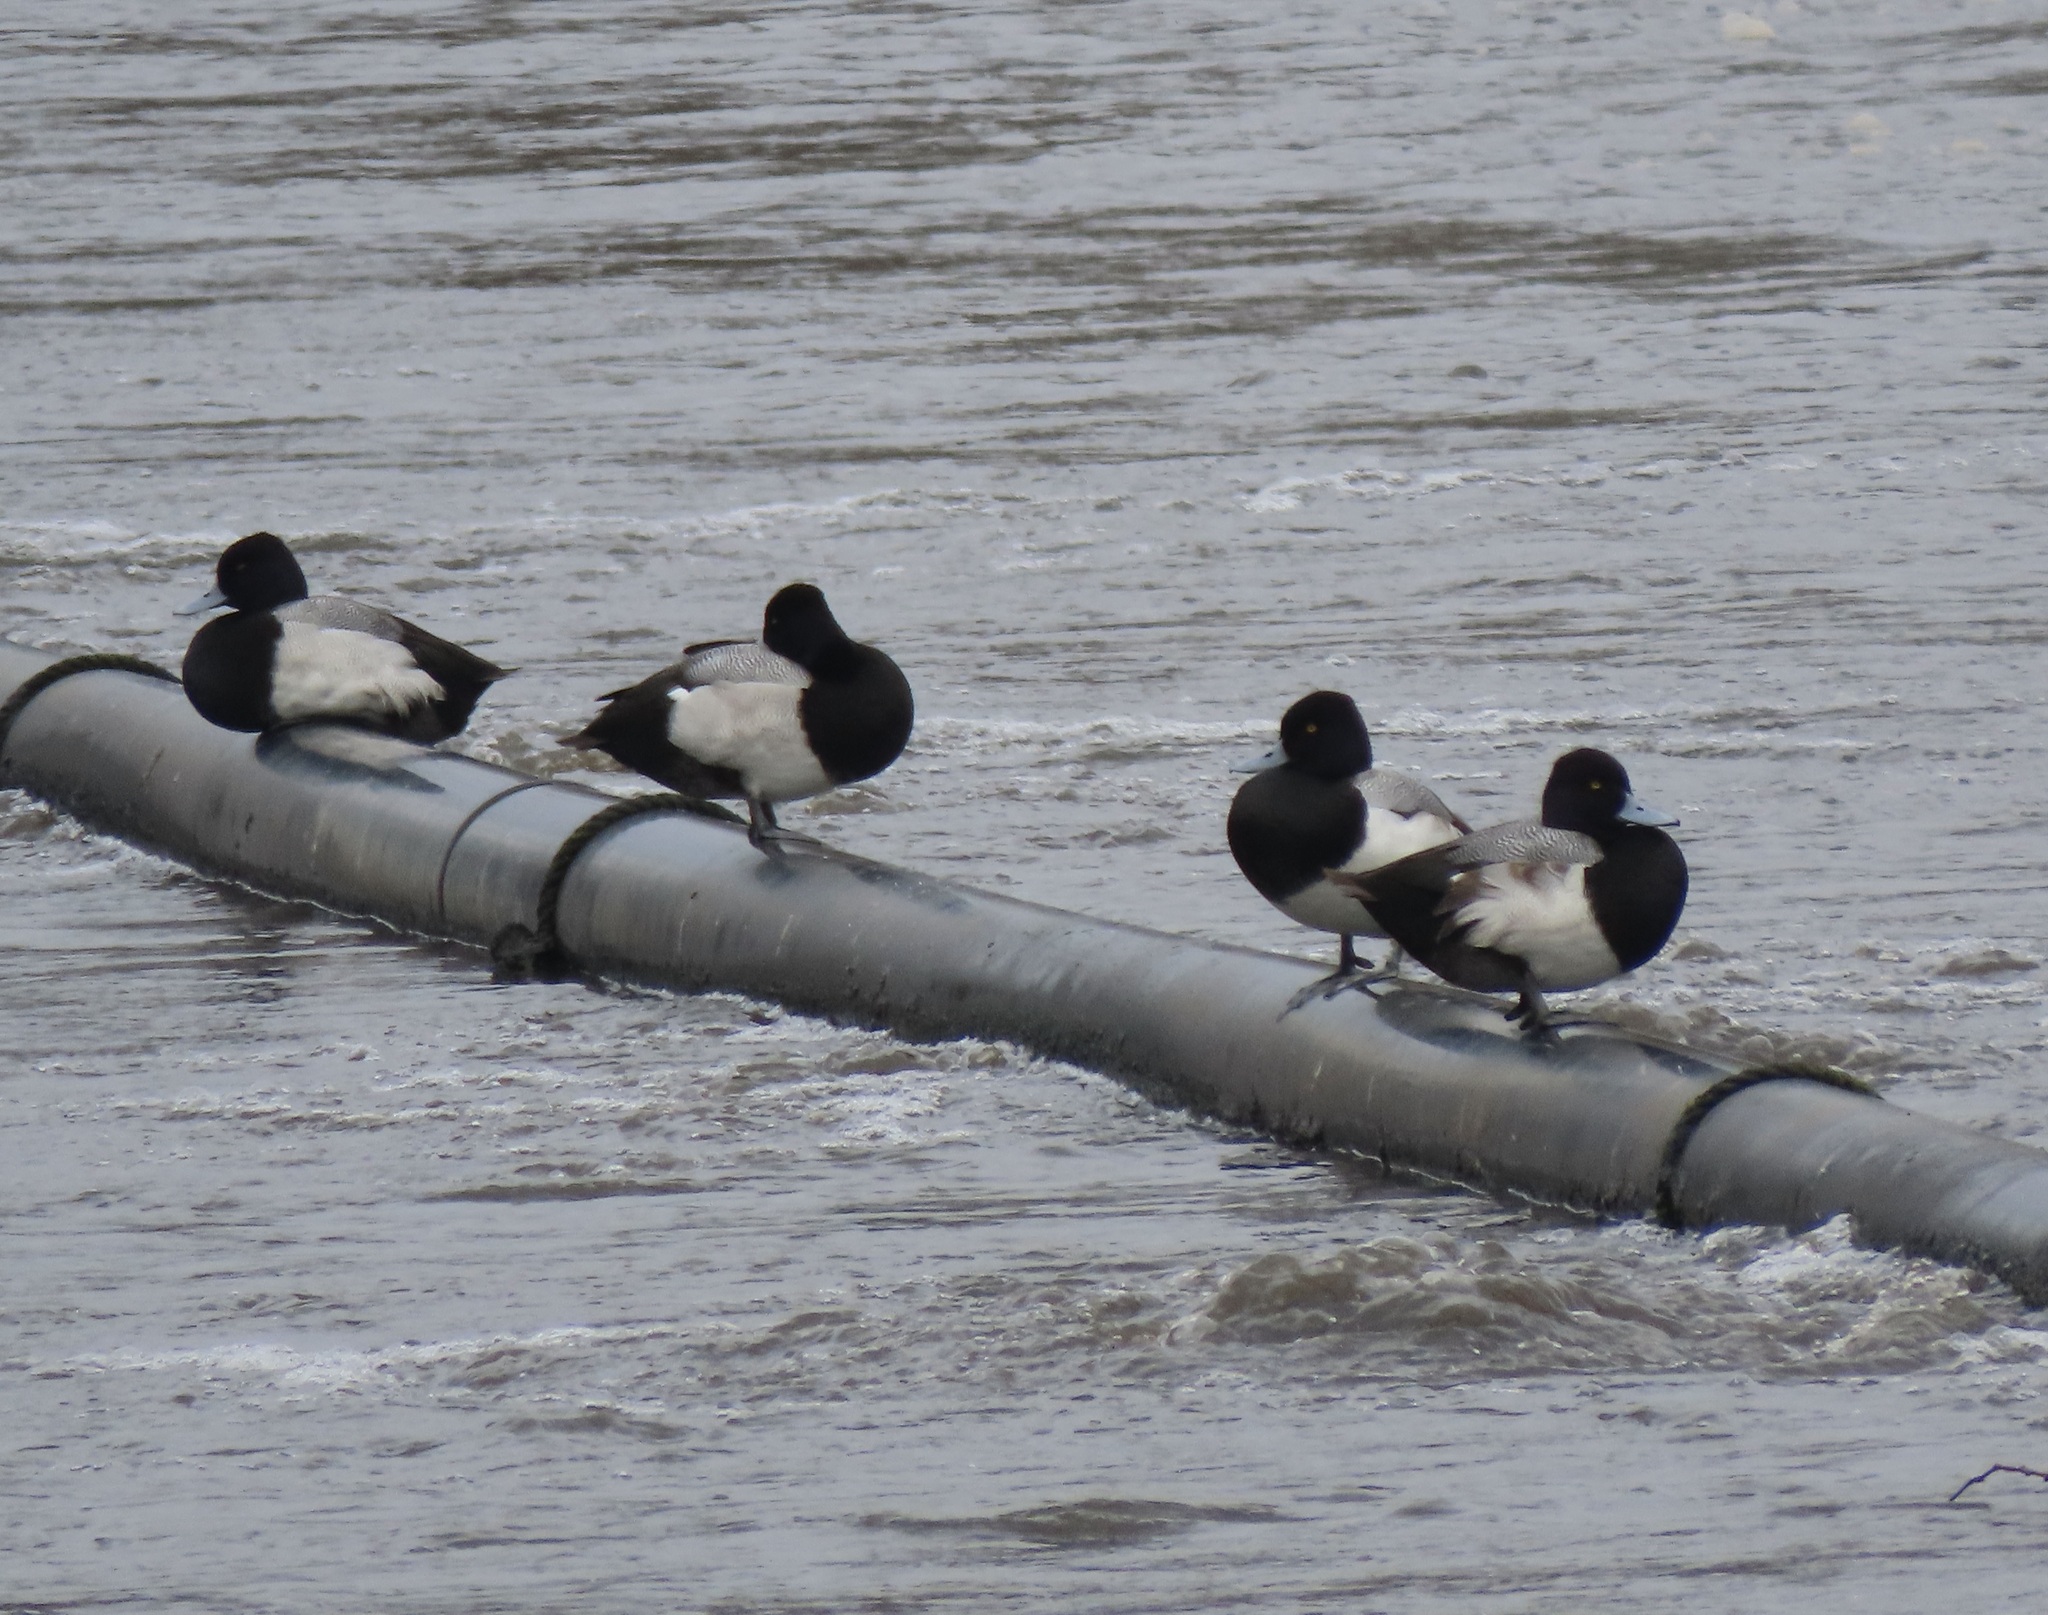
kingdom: Animalia
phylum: Chordata
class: Aves
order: Anseriformes
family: Anatidae
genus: Aythya
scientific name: Aythya affinis
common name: Lesser scaup
